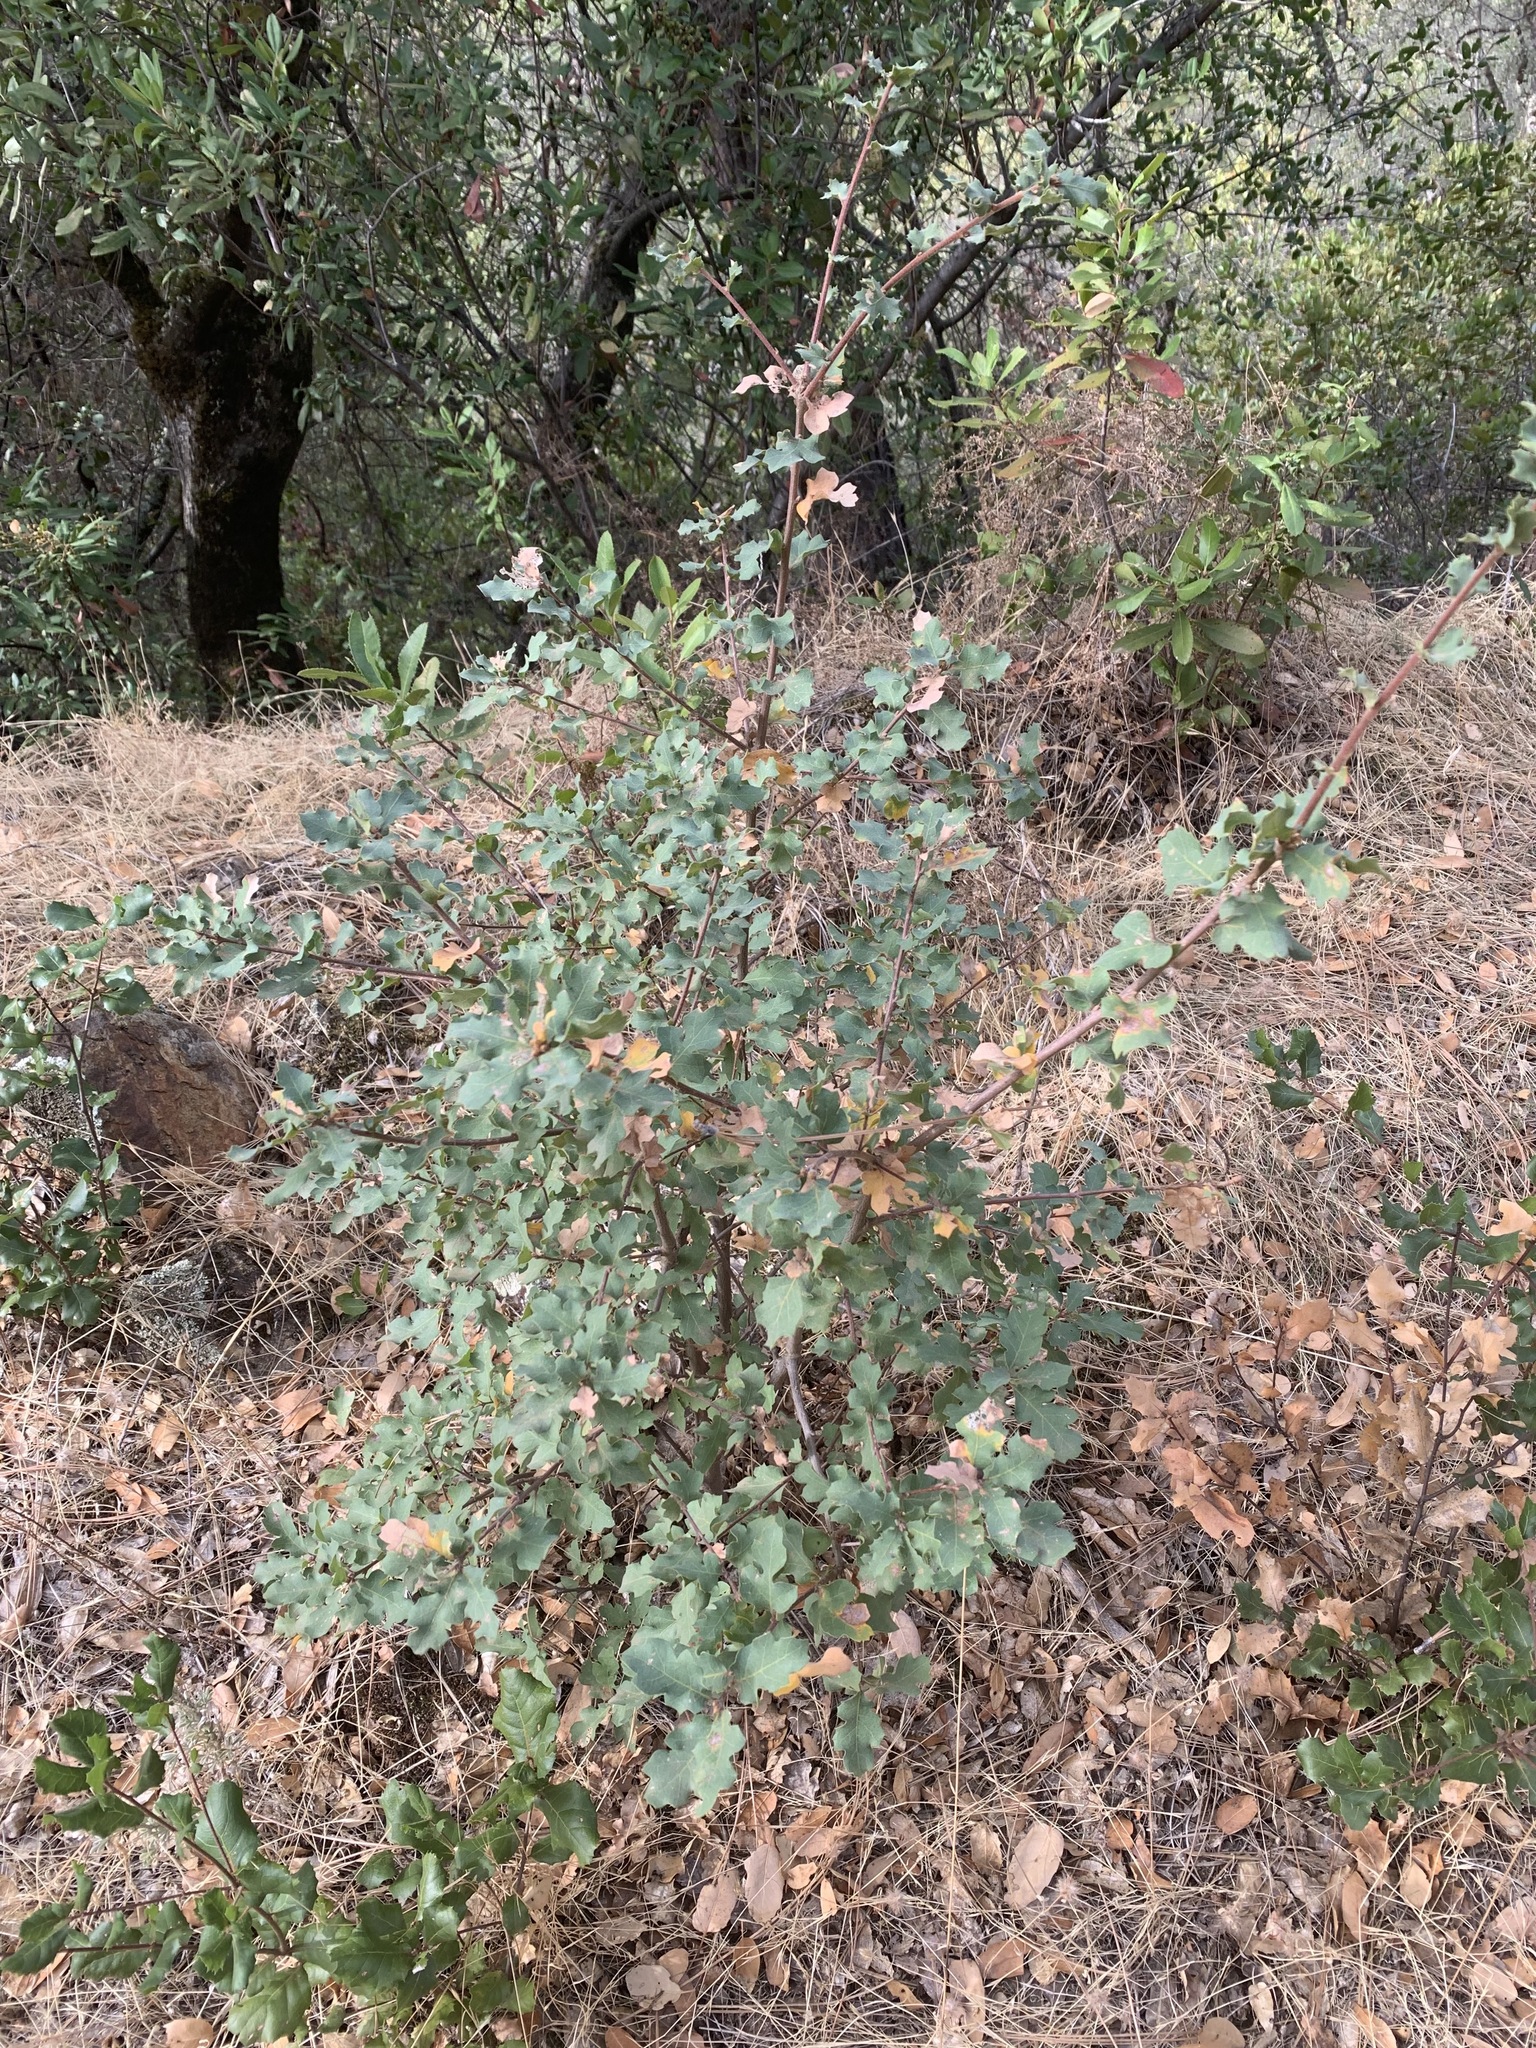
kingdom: Plantae
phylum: Tracheophyta
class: Magnoliopsida
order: Fagales
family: Fagaceae
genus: Quercus
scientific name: Quercus douglasii
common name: Blue oak
